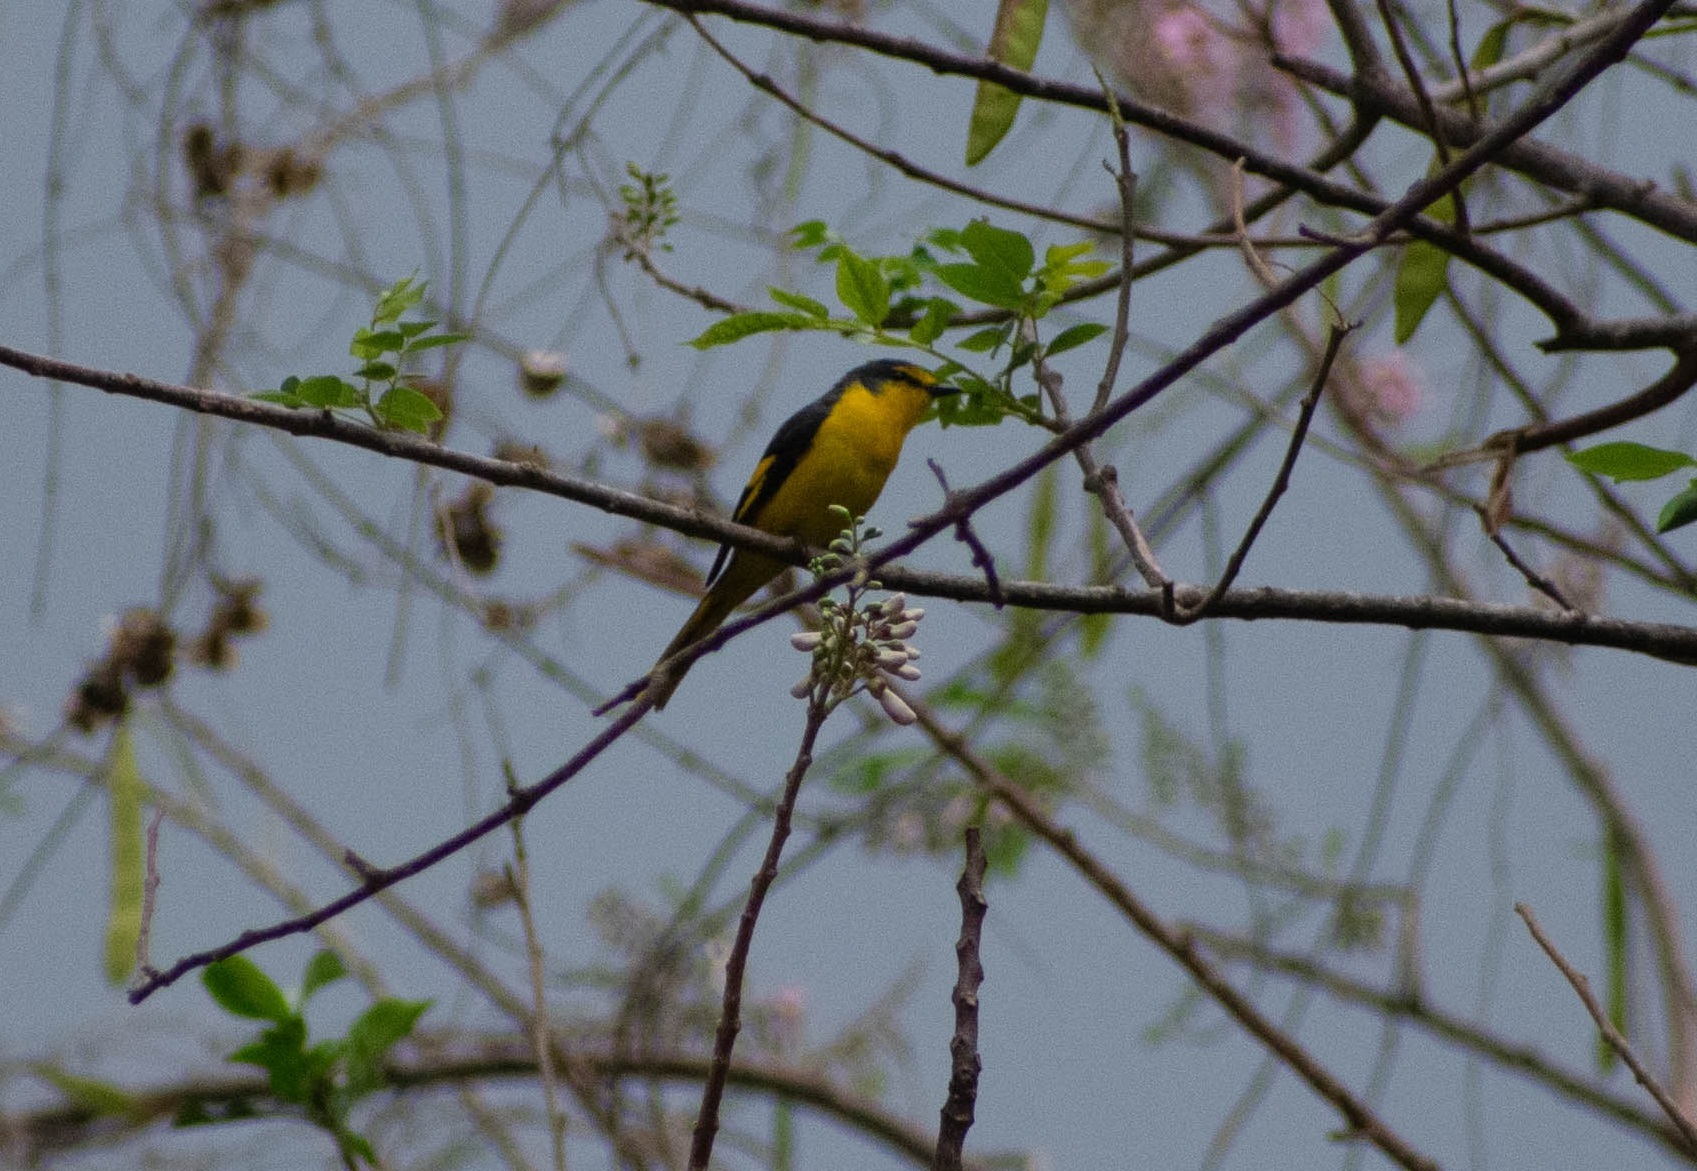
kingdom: Animalia
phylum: Chordata
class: Aves
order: Passeriformes
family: Campephagidae
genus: Pericrocotus
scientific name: Pericrocotus flammeus
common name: Orange minivet
